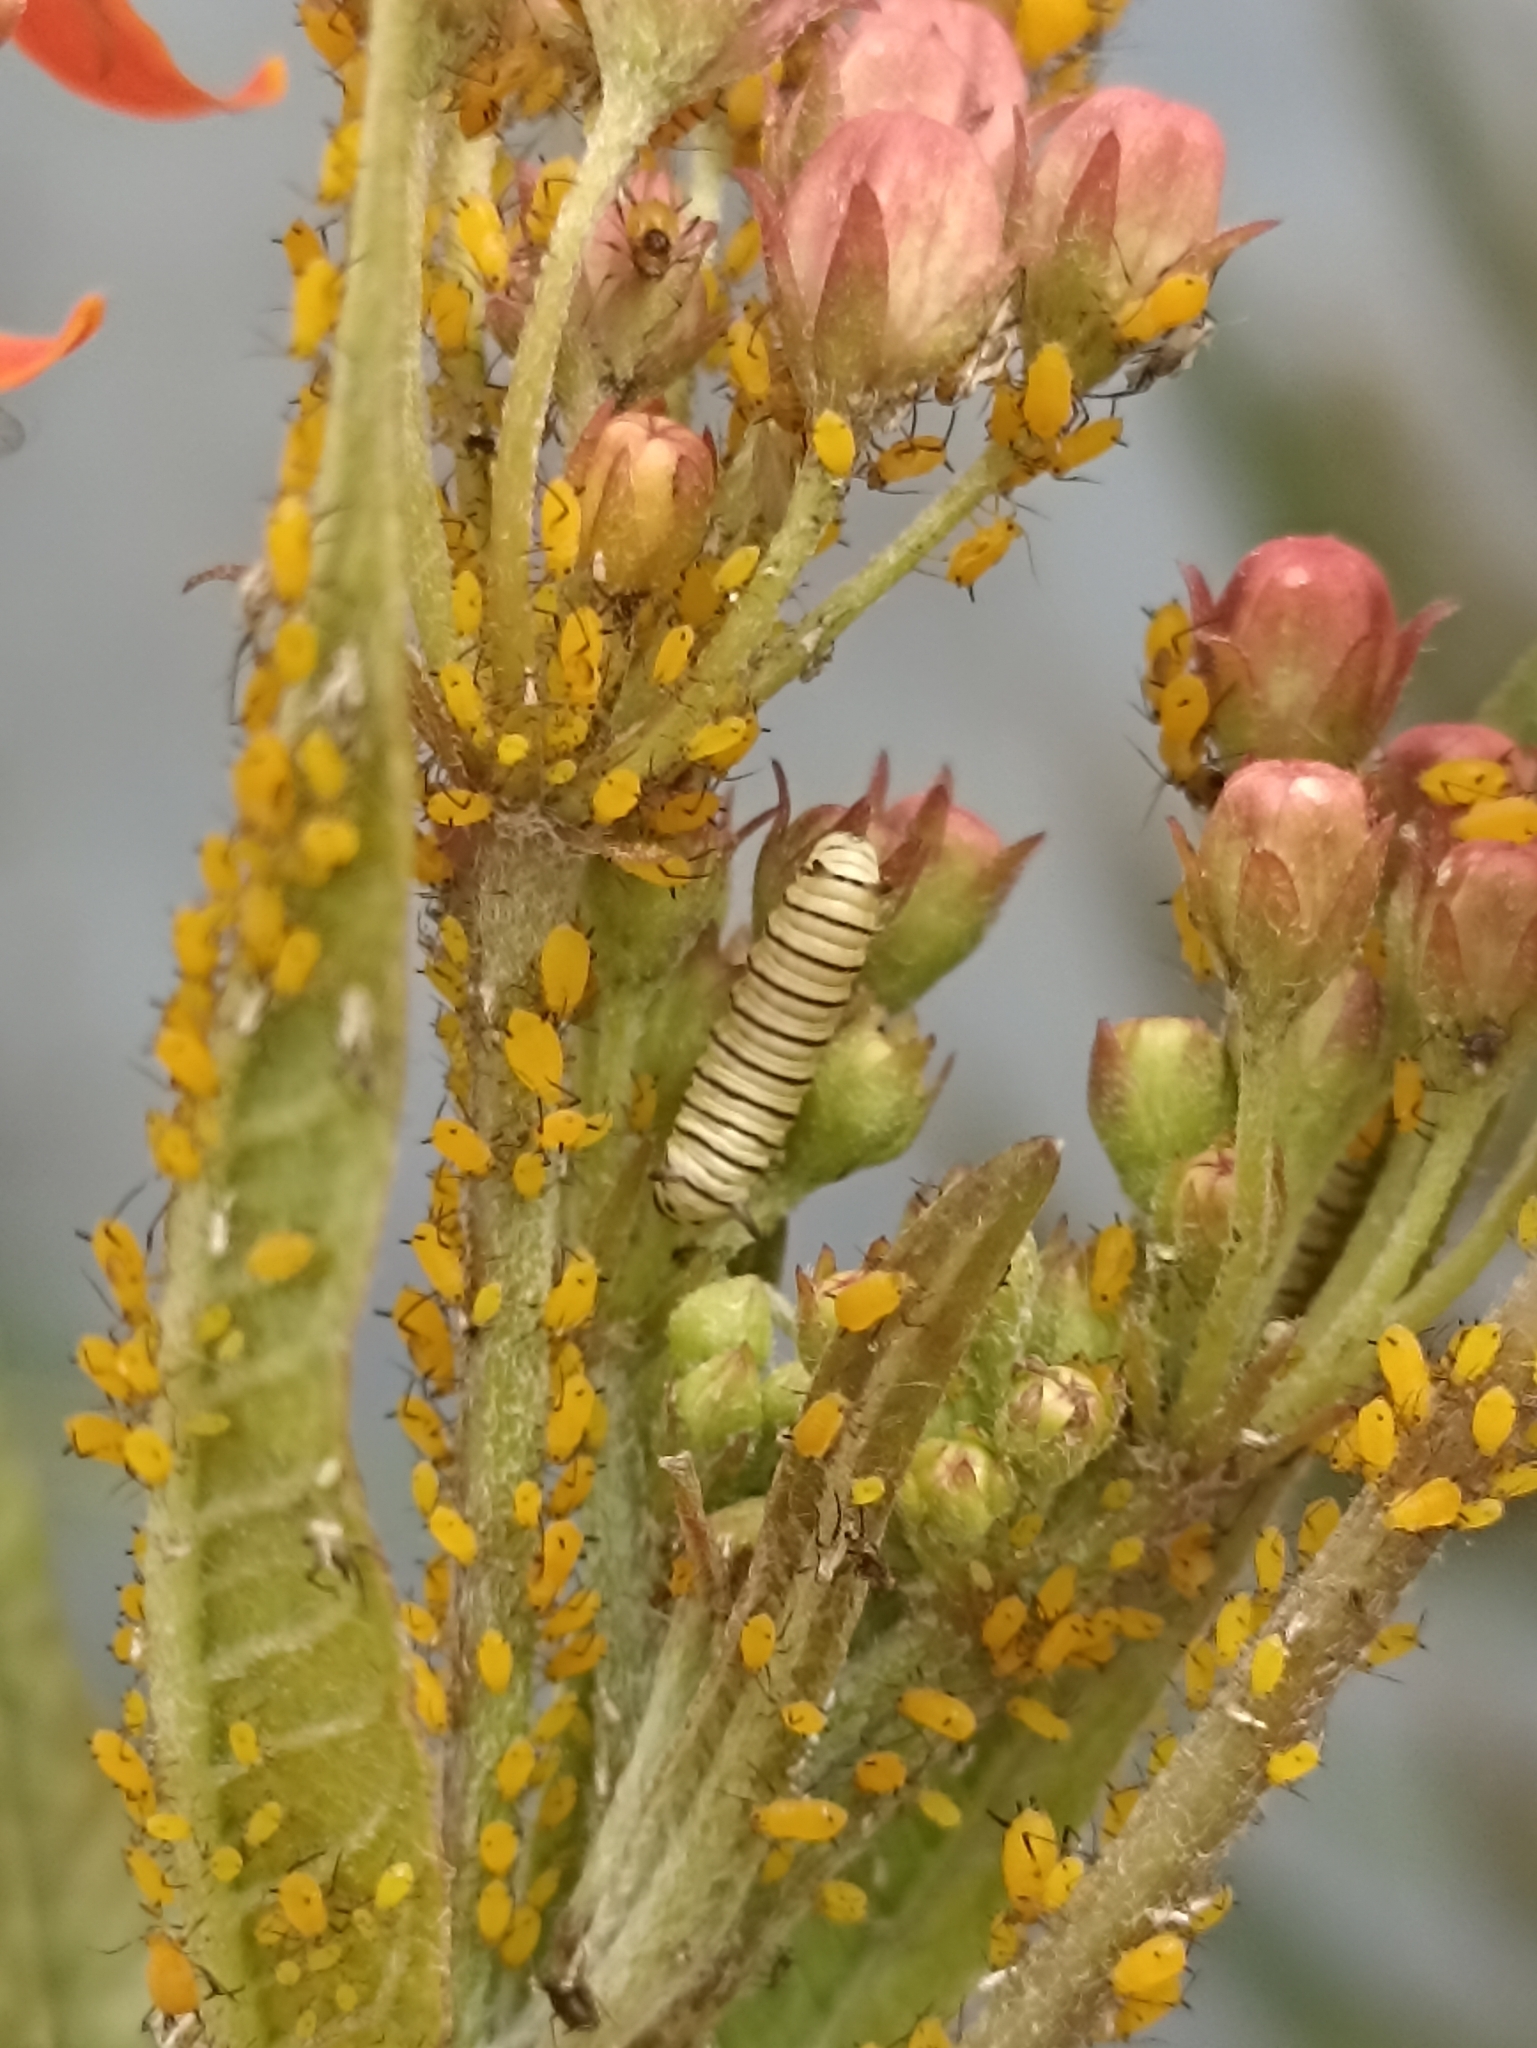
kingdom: Animalia
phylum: Arthropoda
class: Insecta
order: Hemiptera
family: Aphididae
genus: Aphis
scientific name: Aphis nerii
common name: Oleander aphid
